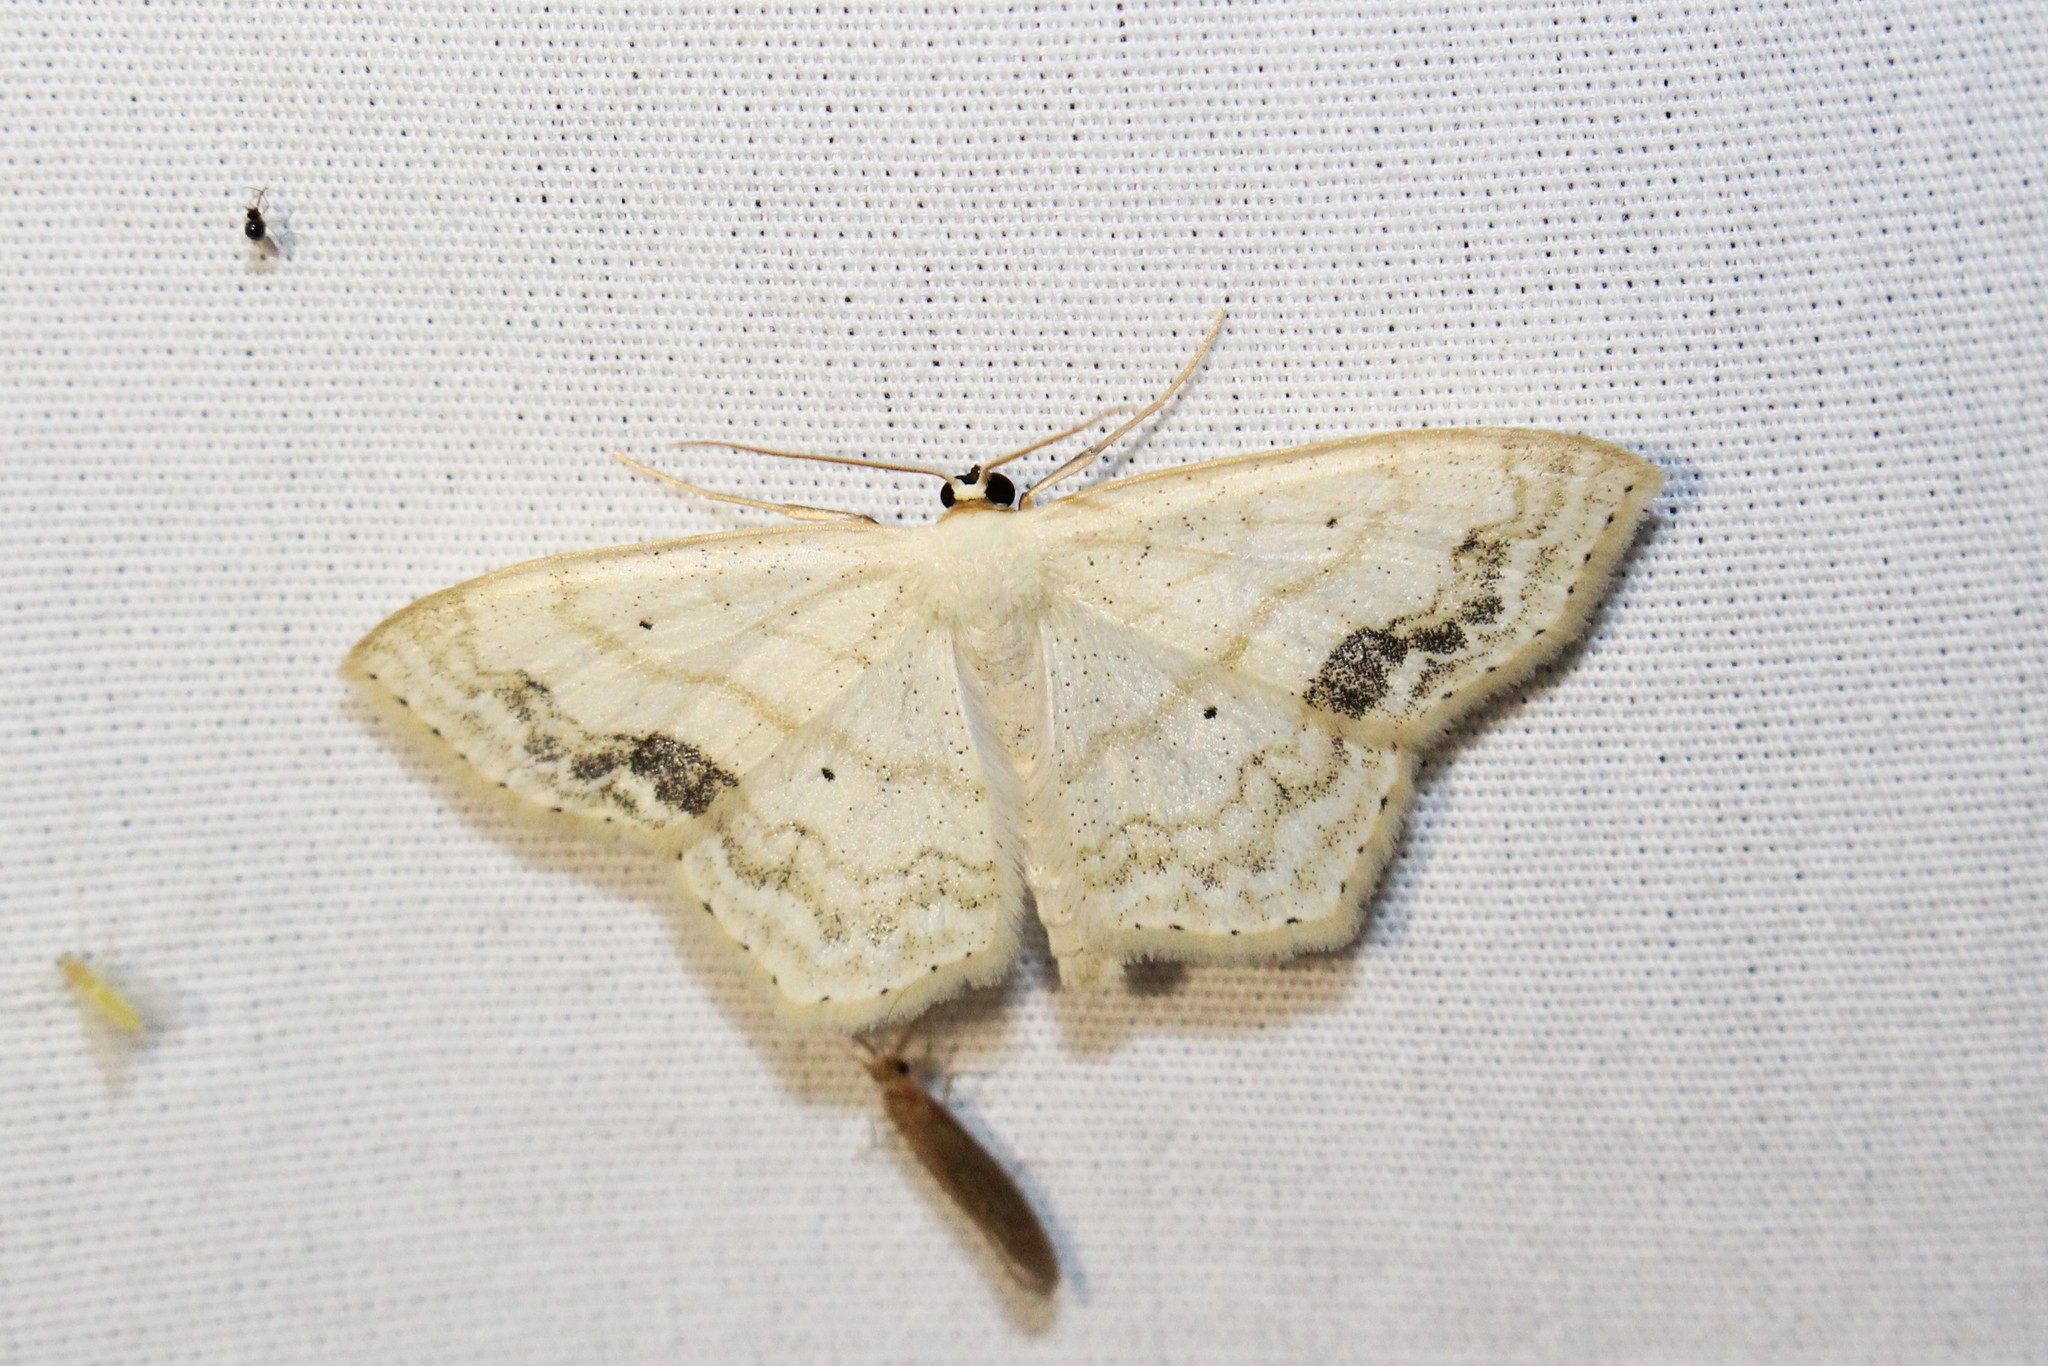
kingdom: Animalia
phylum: Arthropoda
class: Insecta
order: Lepidoptera
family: Geometridae
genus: Scopula
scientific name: Scopula limboundata
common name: Large lace border
